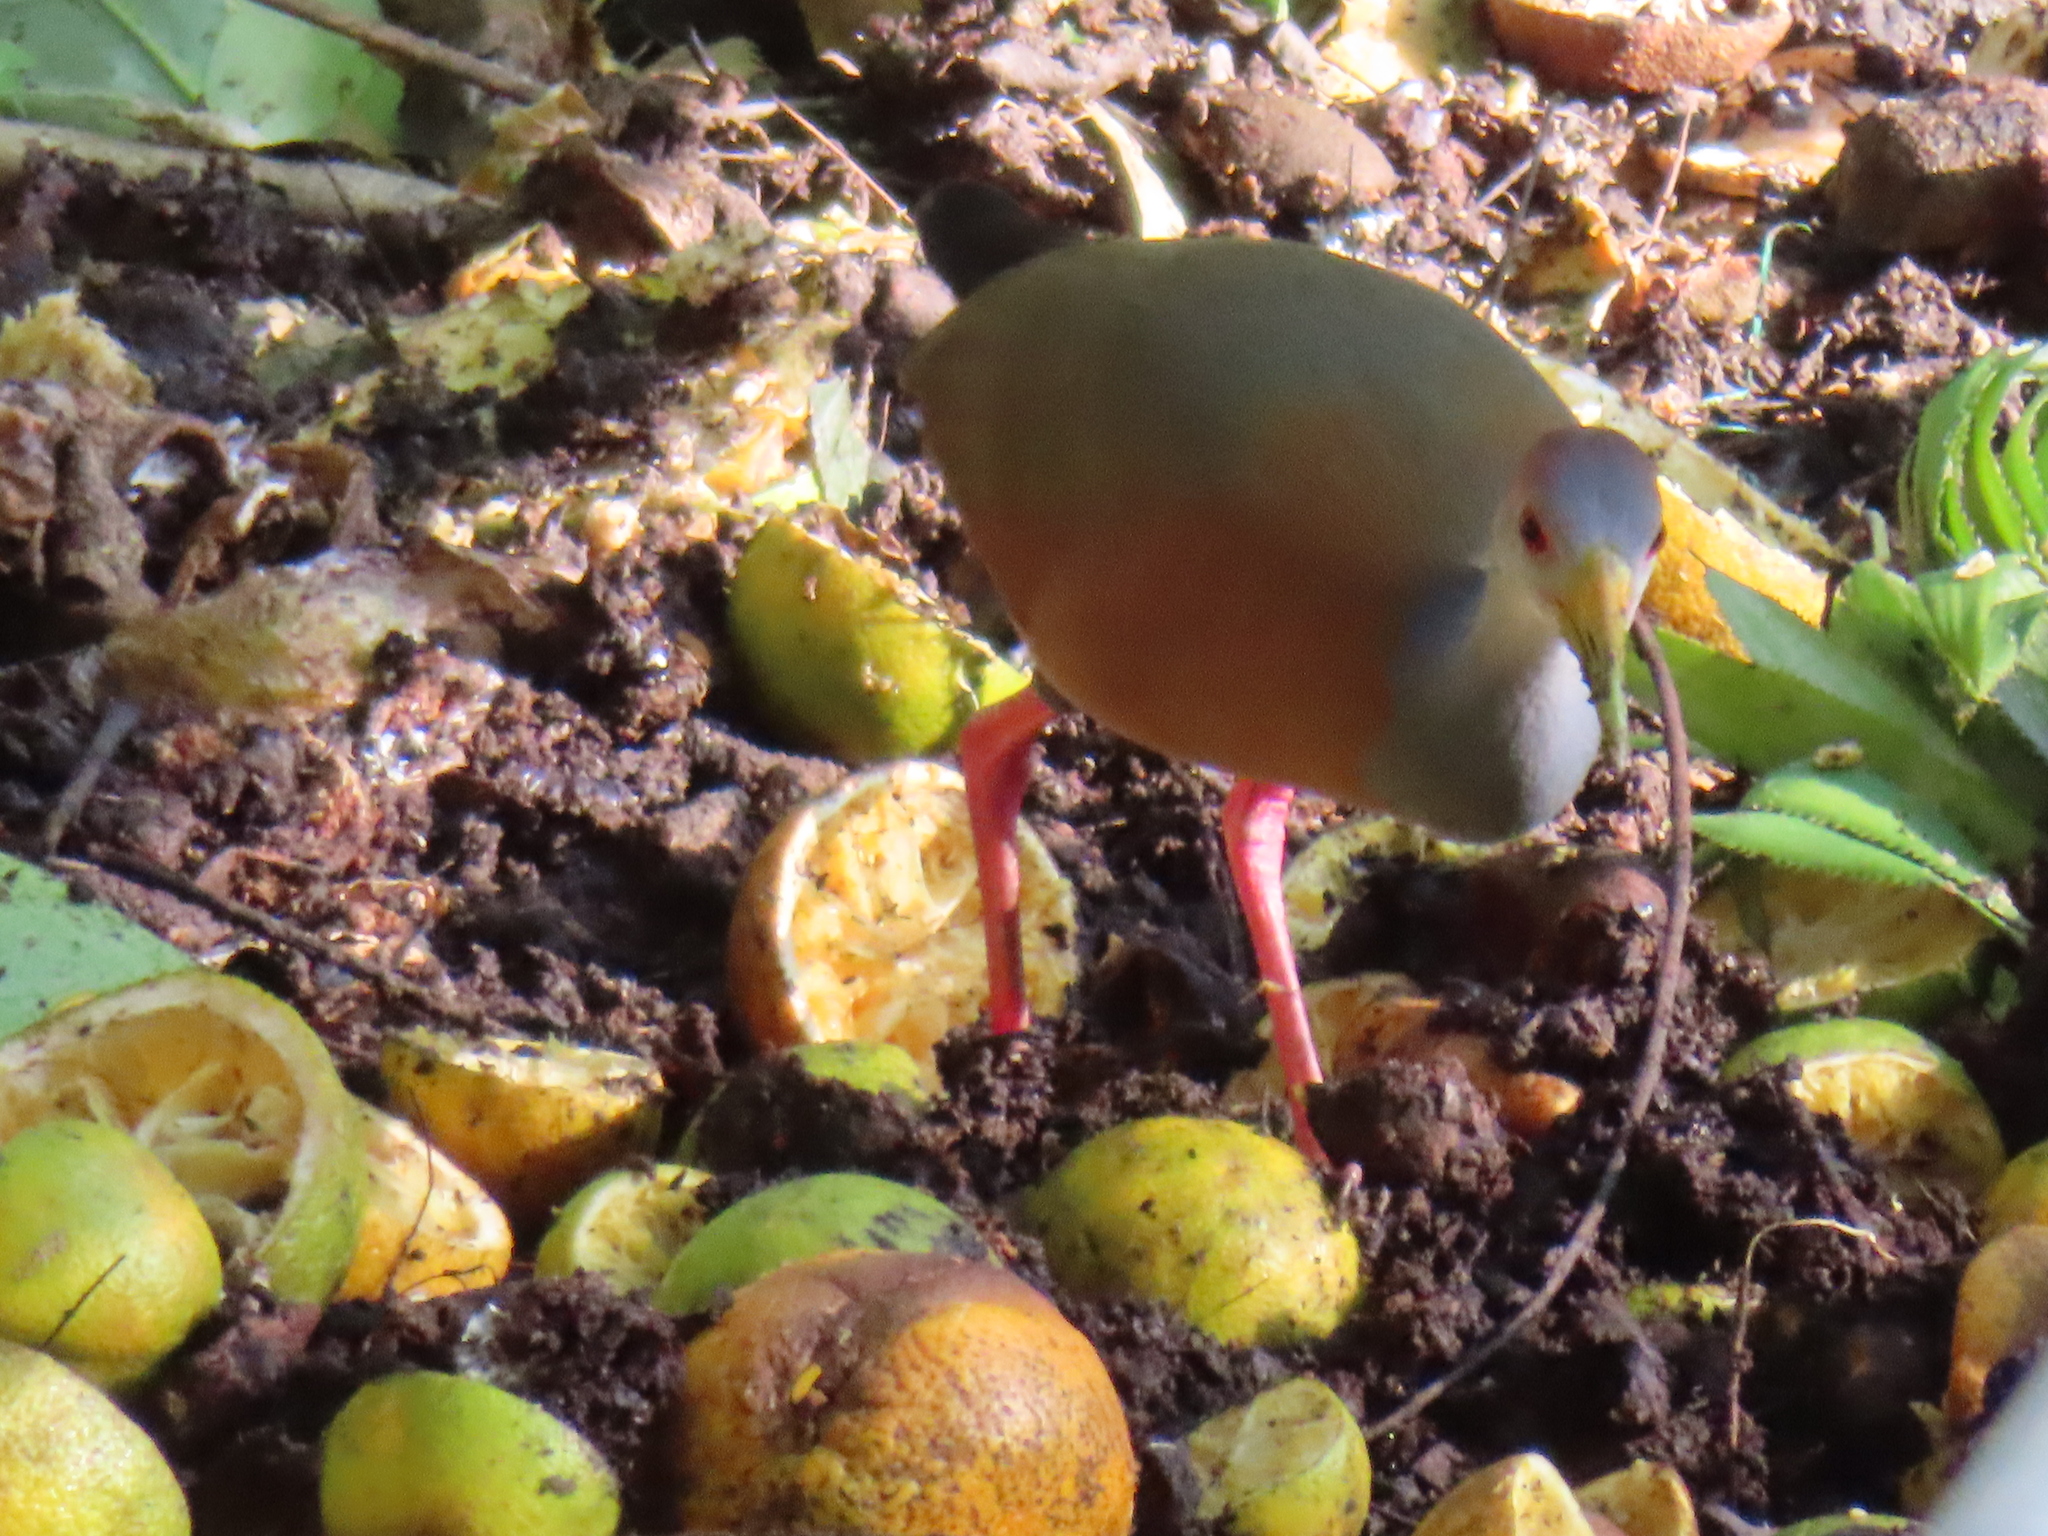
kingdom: Animalia
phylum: Chordata
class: Aves
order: Gruiformes
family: Rallidae
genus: Aramides
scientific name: Aramides albiventris
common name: Russet-naped wood-rail
